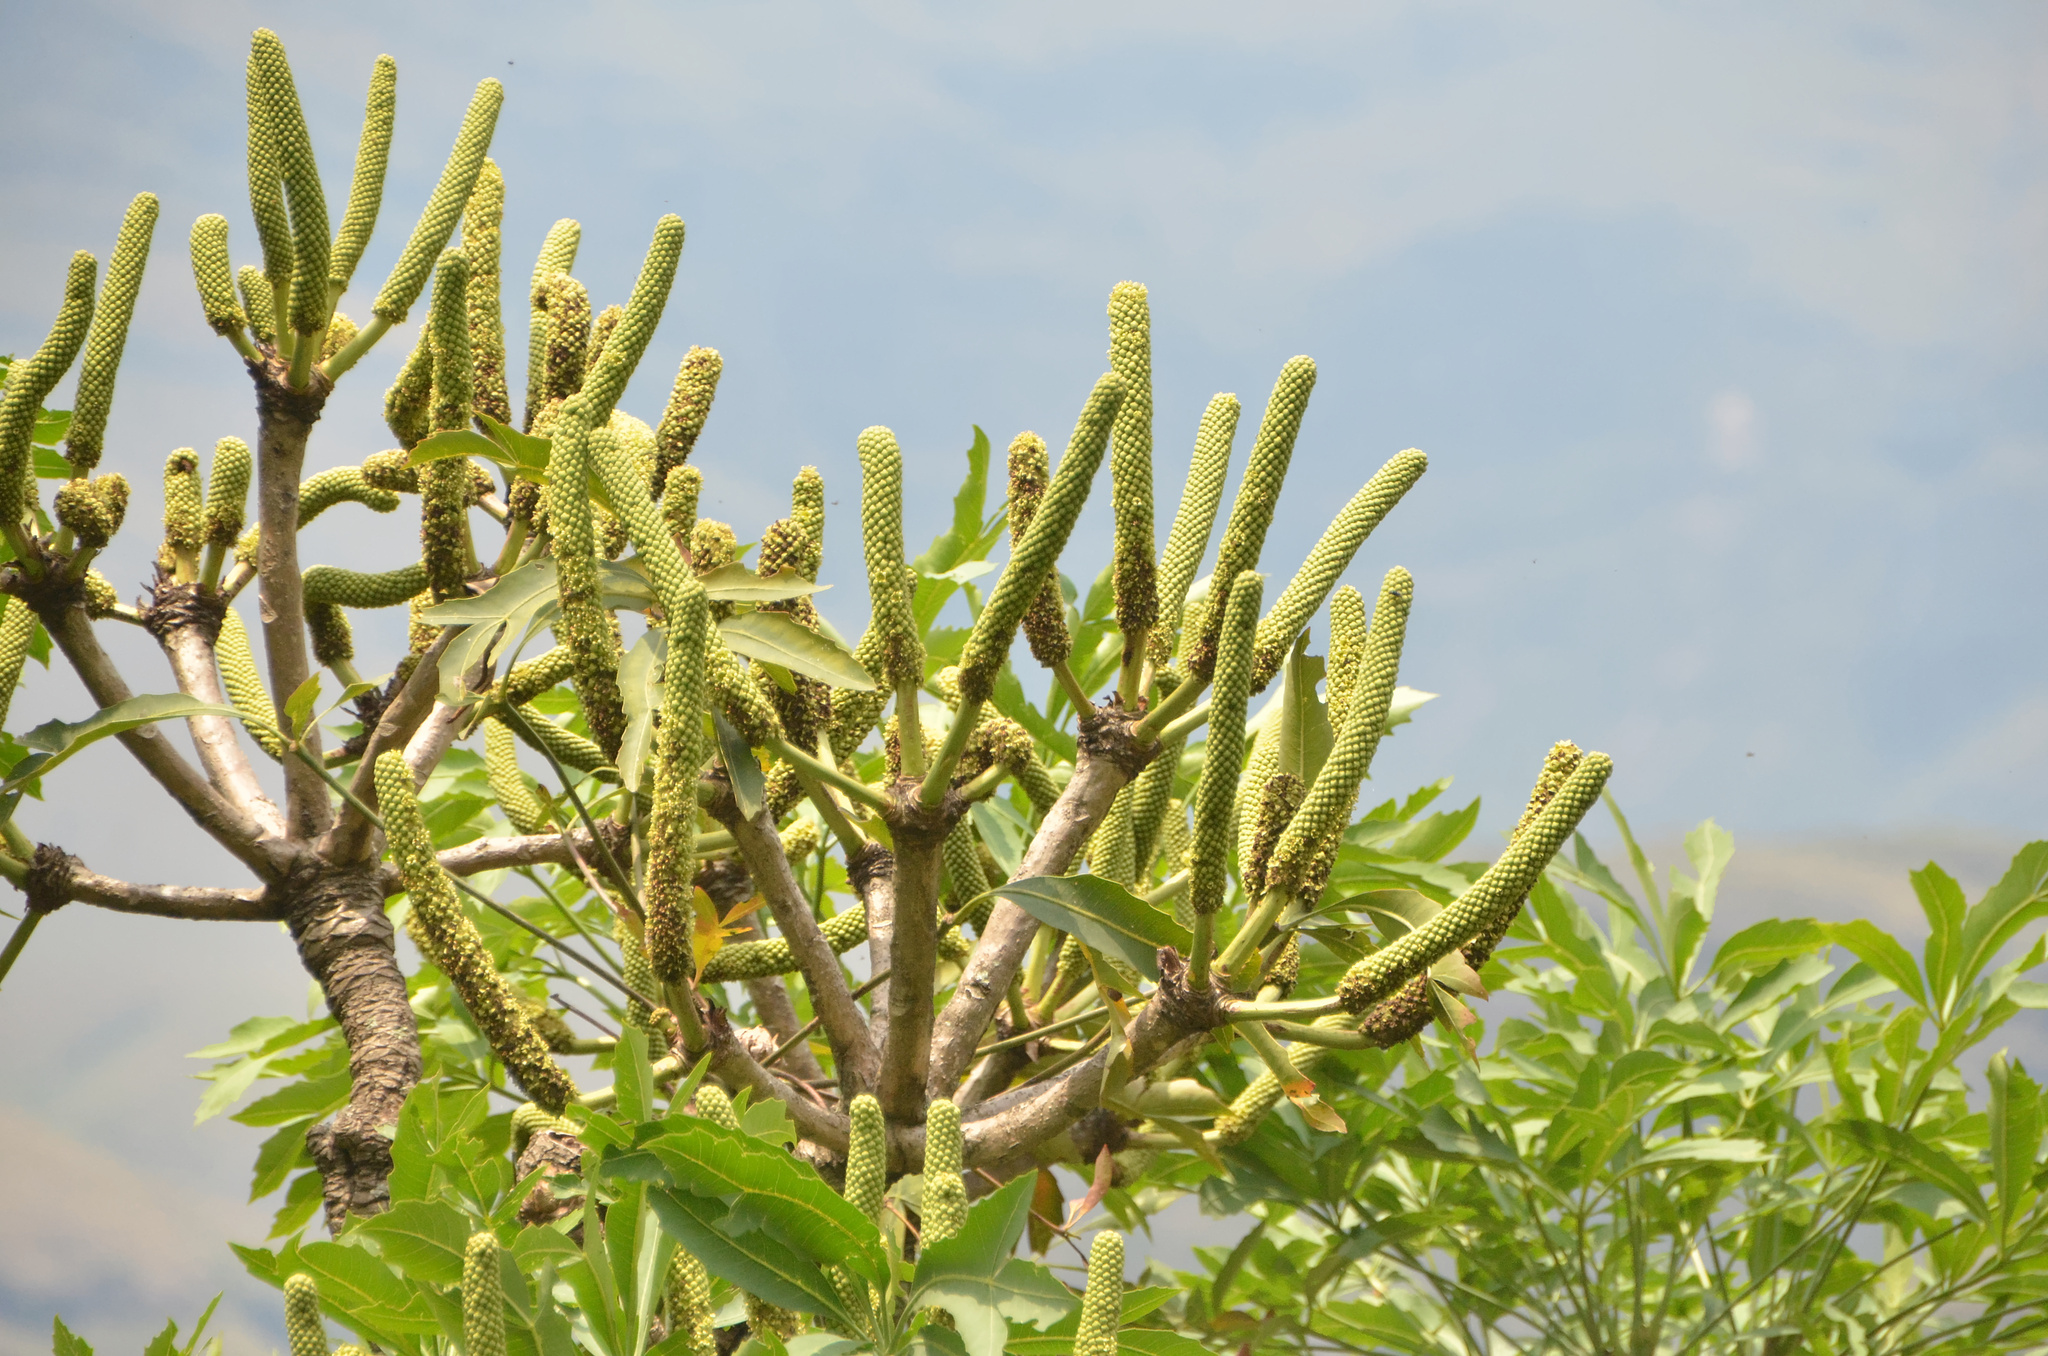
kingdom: Plantae
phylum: Tracheophyta
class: Magnoliopsida
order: Apiales
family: Araliaceae
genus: Cussonia
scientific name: Cussonia spicata
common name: Common cabbagetree
